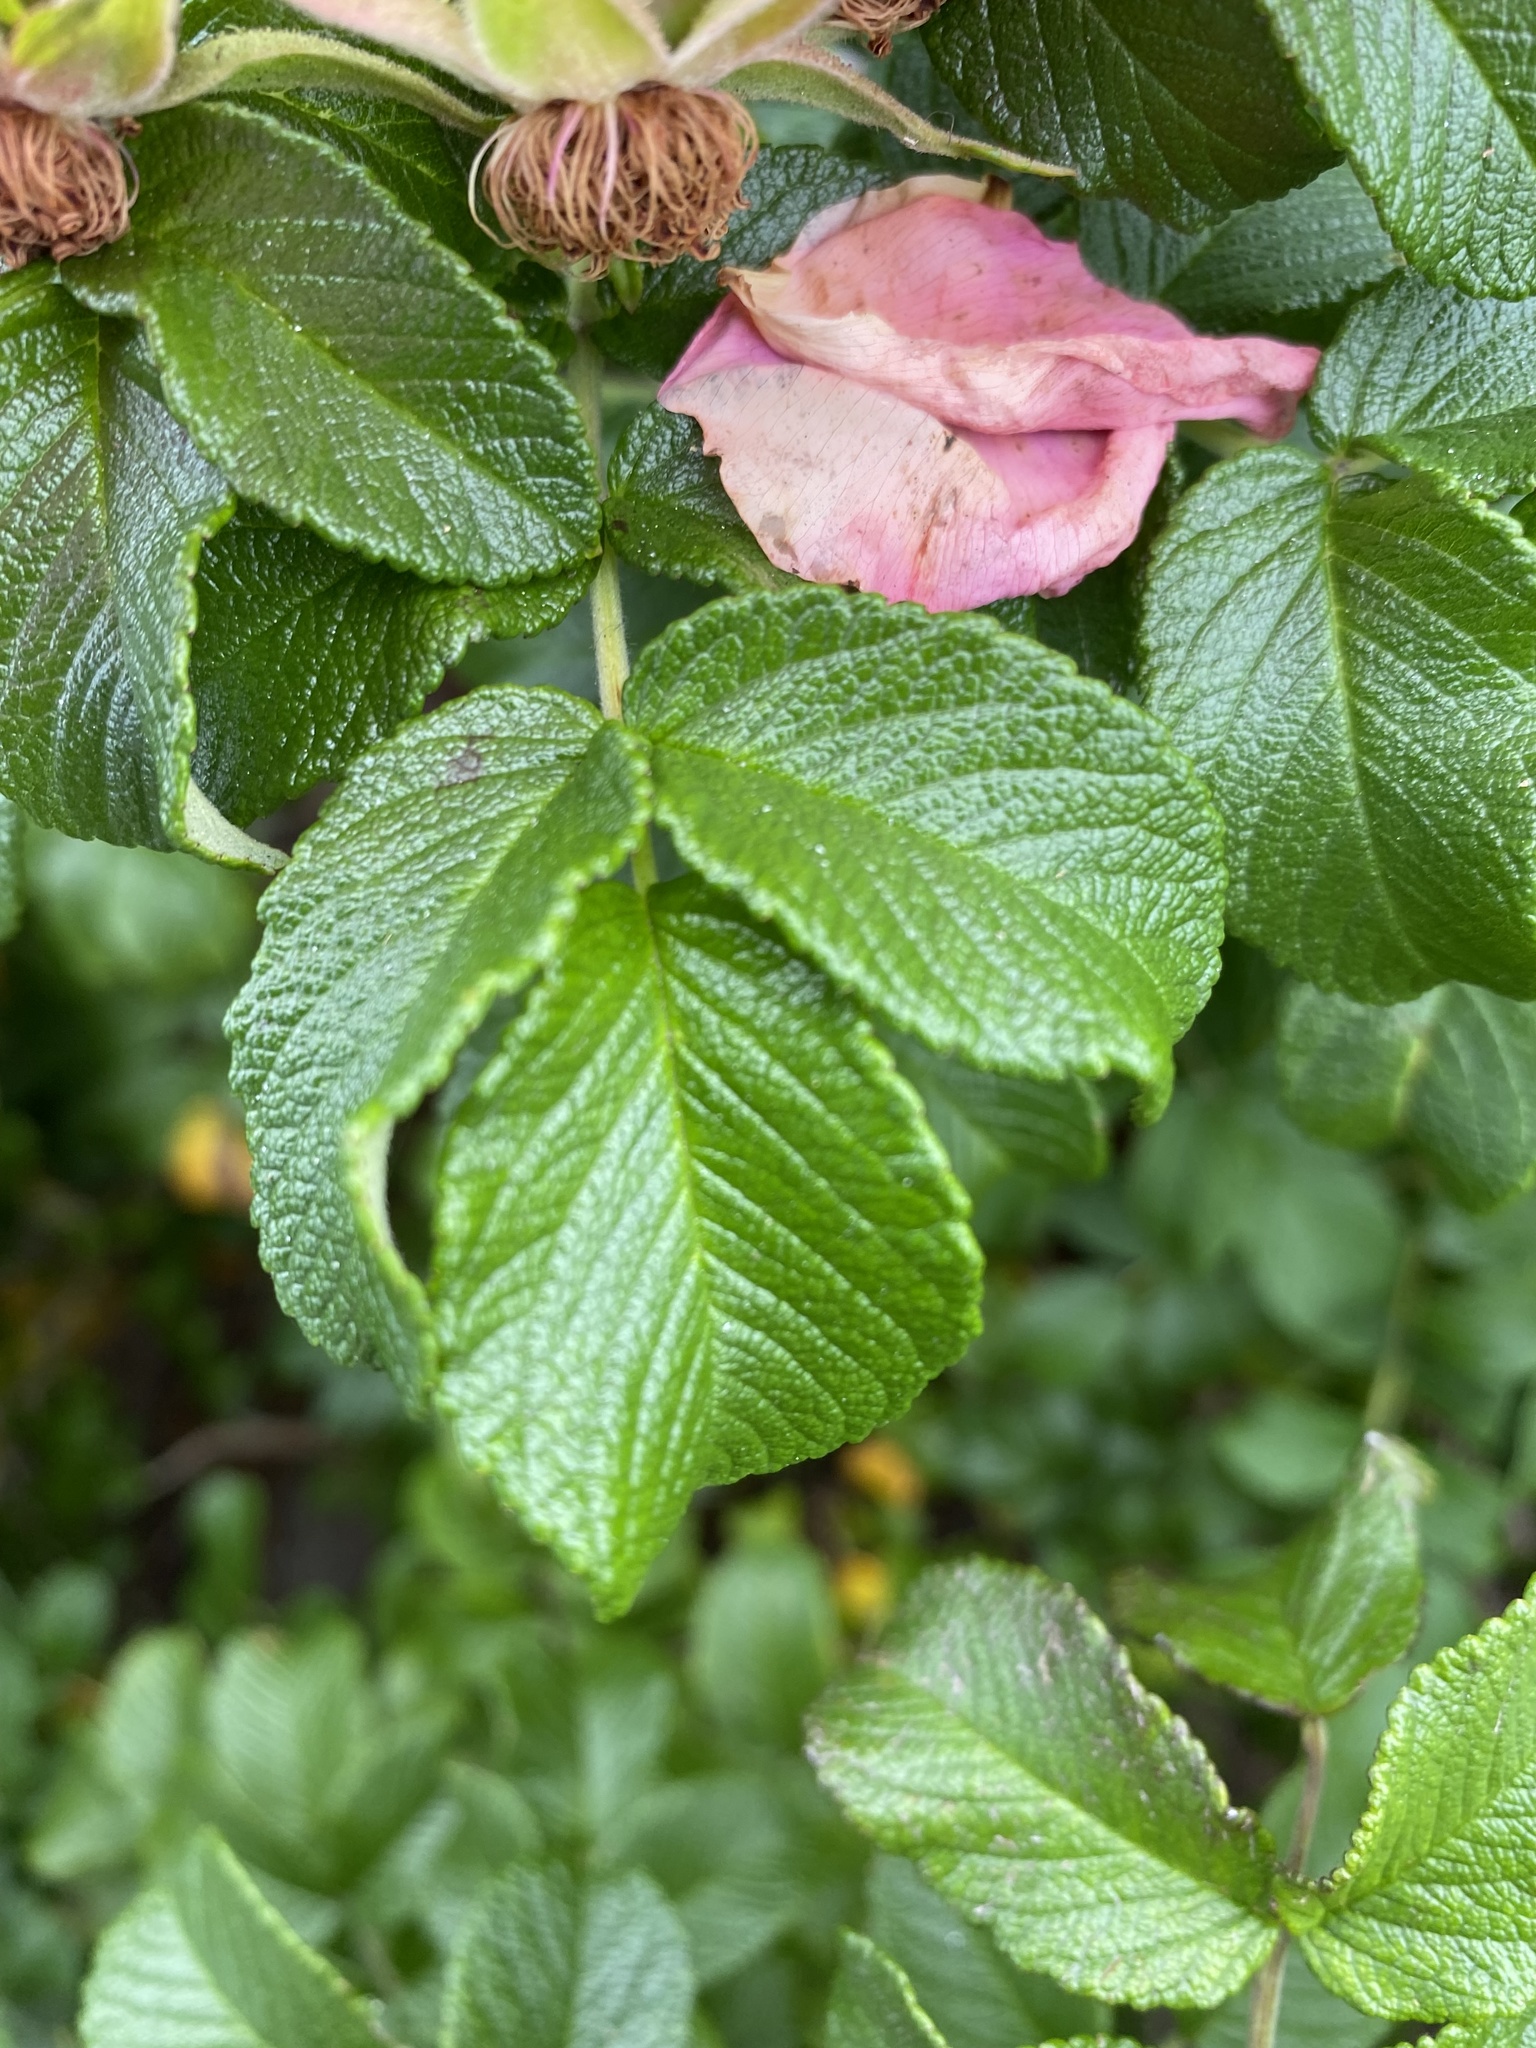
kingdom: Plantae
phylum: Tracheophyta
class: Magnoliopsida
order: Rosales
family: Rosaceae
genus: Rosa
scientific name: Rosa rugosa
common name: Japanese rose
